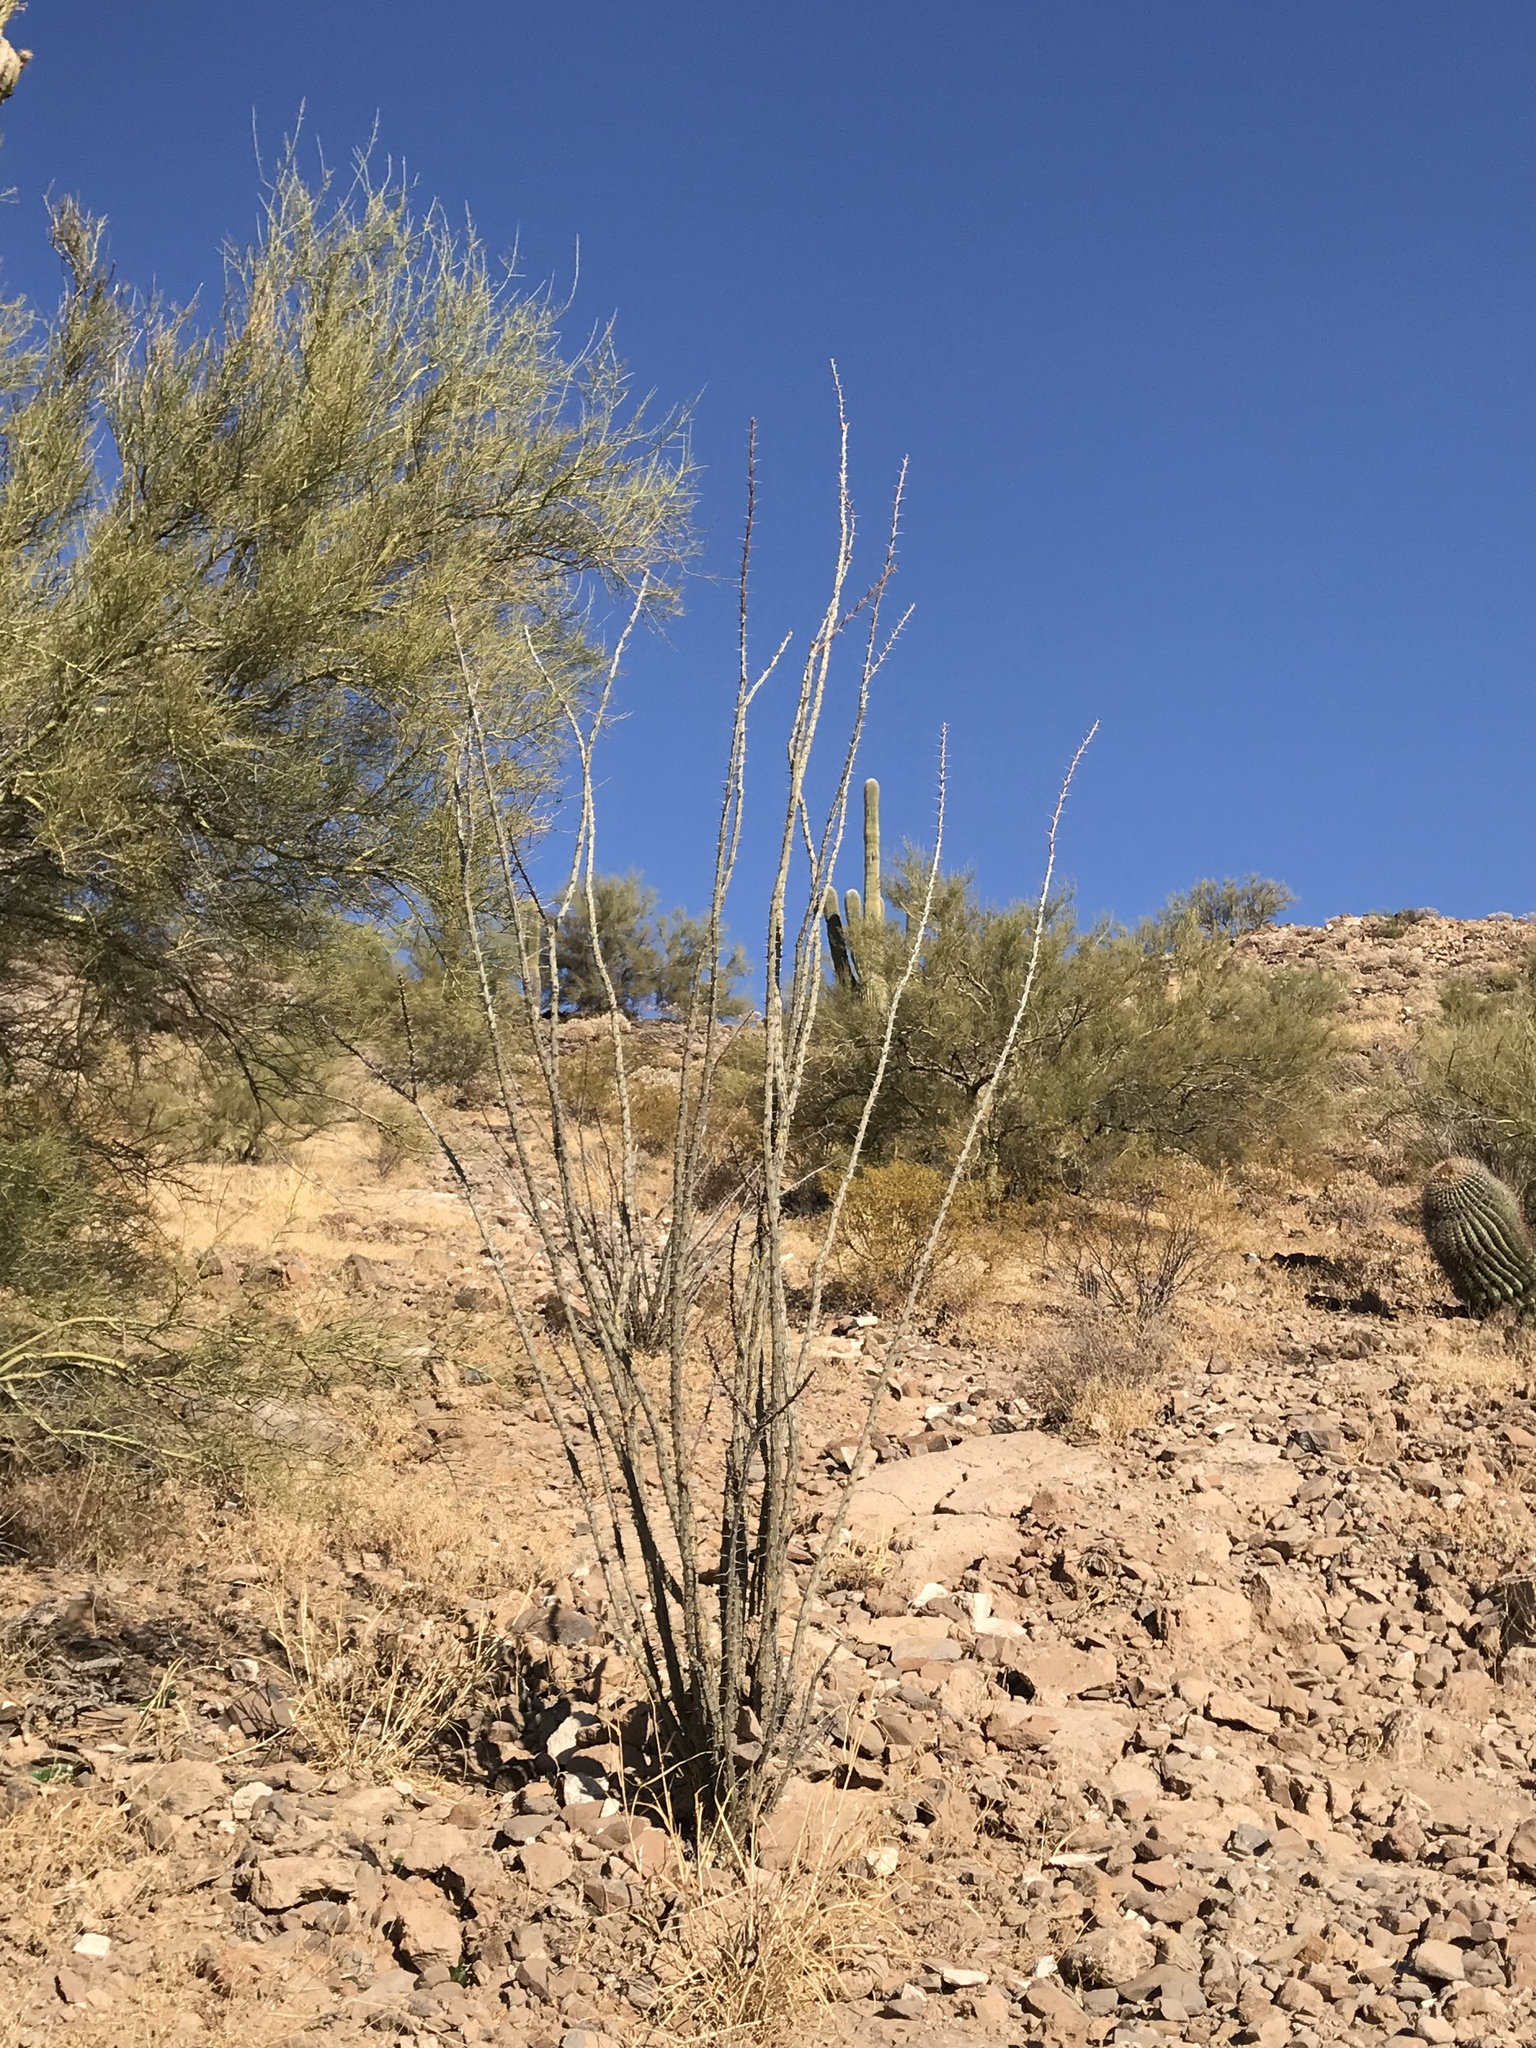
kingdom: Plantae
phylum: Tracheophyta
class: Magnoliopsida
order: Ericales
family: Fouquieriaceae
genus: Fouquieria
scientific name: Fouquieria splendens
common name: Vine-cactus
